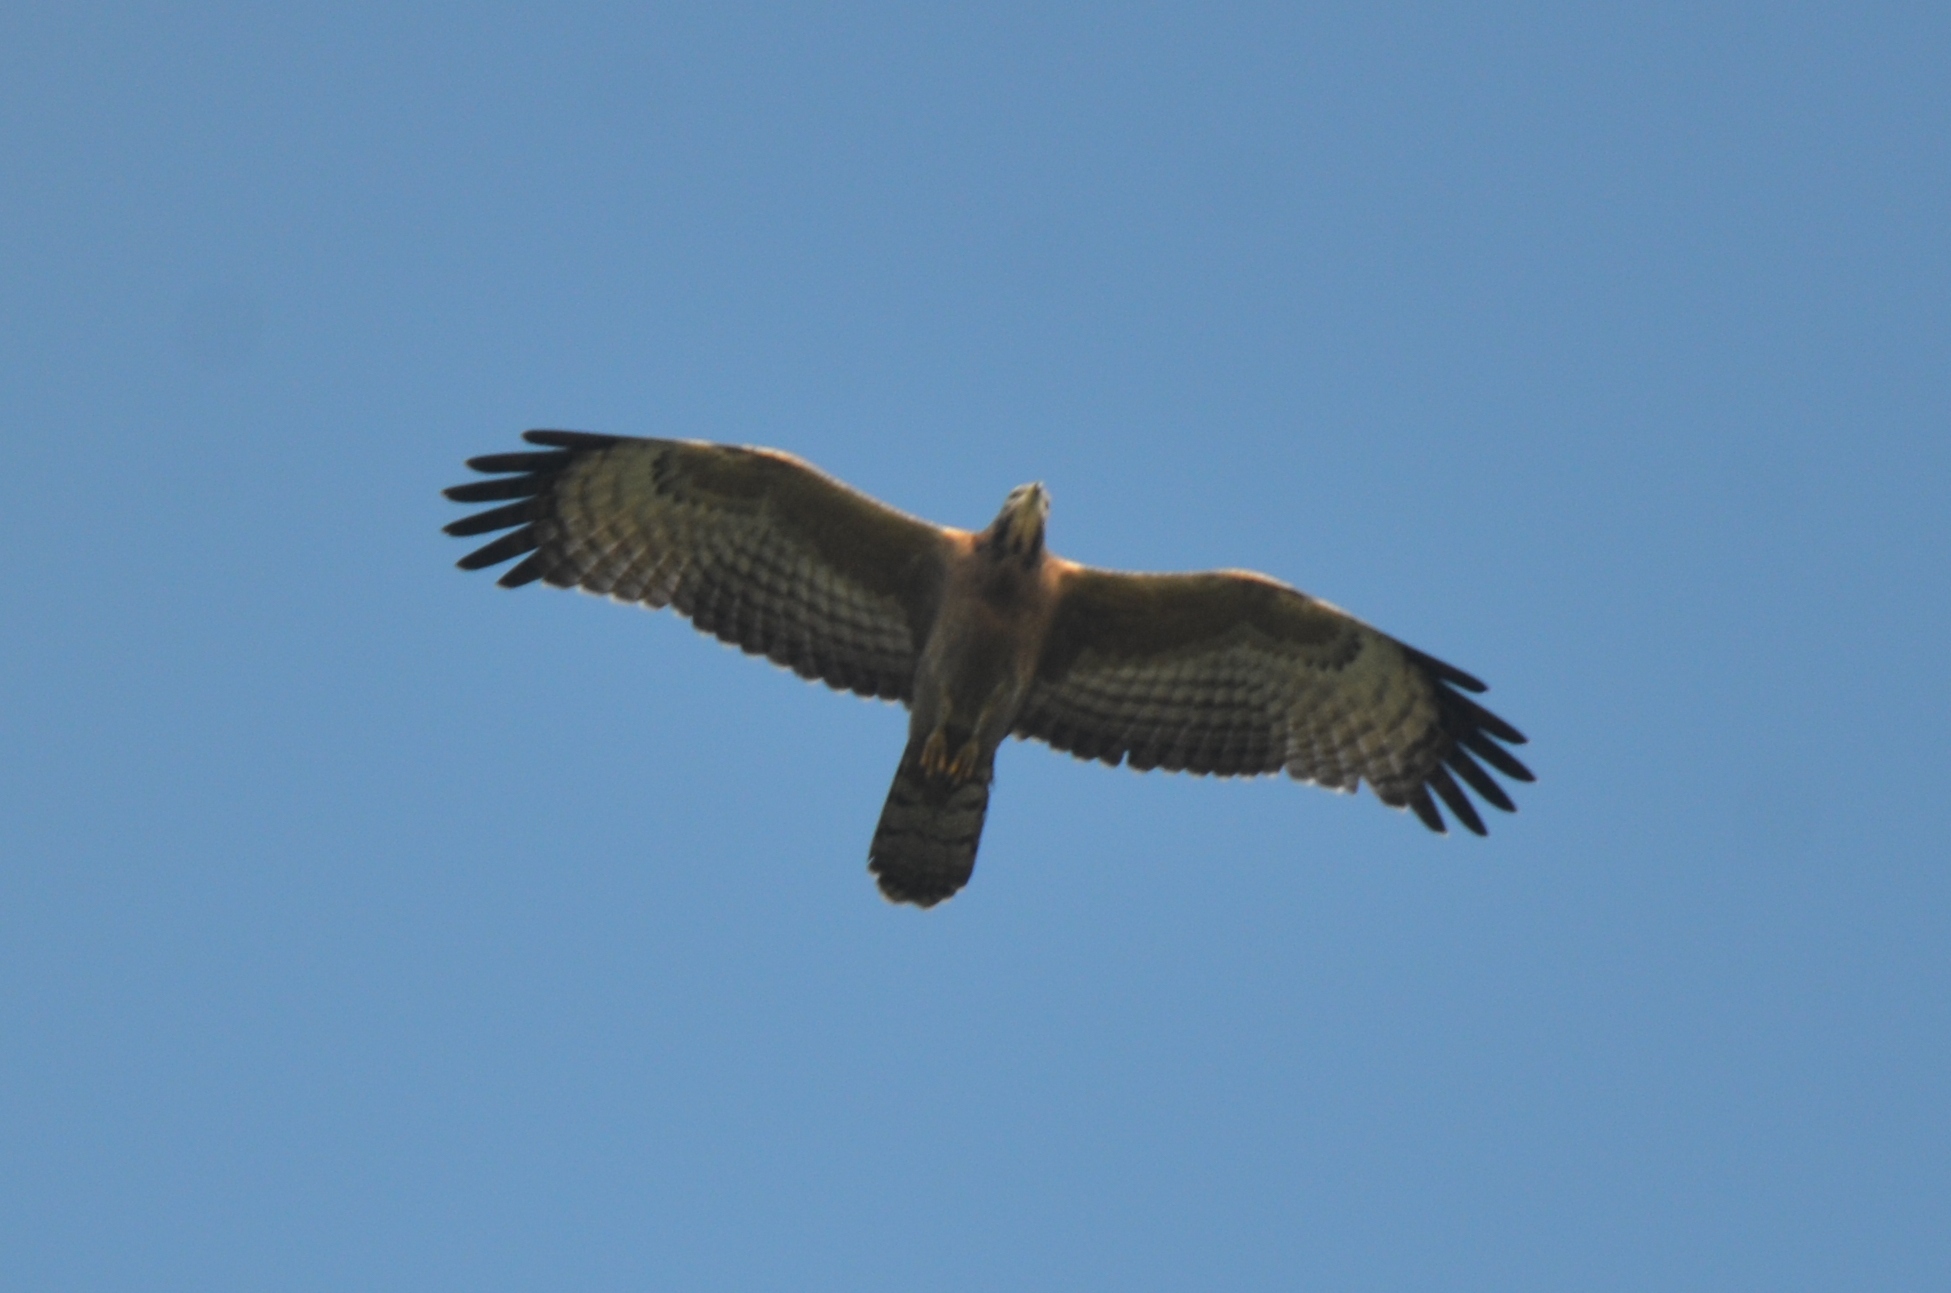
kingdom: Animalia
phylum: Chordata
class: Aves
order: Accipitriformes
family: Accipitridae
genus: Pernis
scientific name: Pernis ptilorhynchus
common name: Crested honey buzzard
